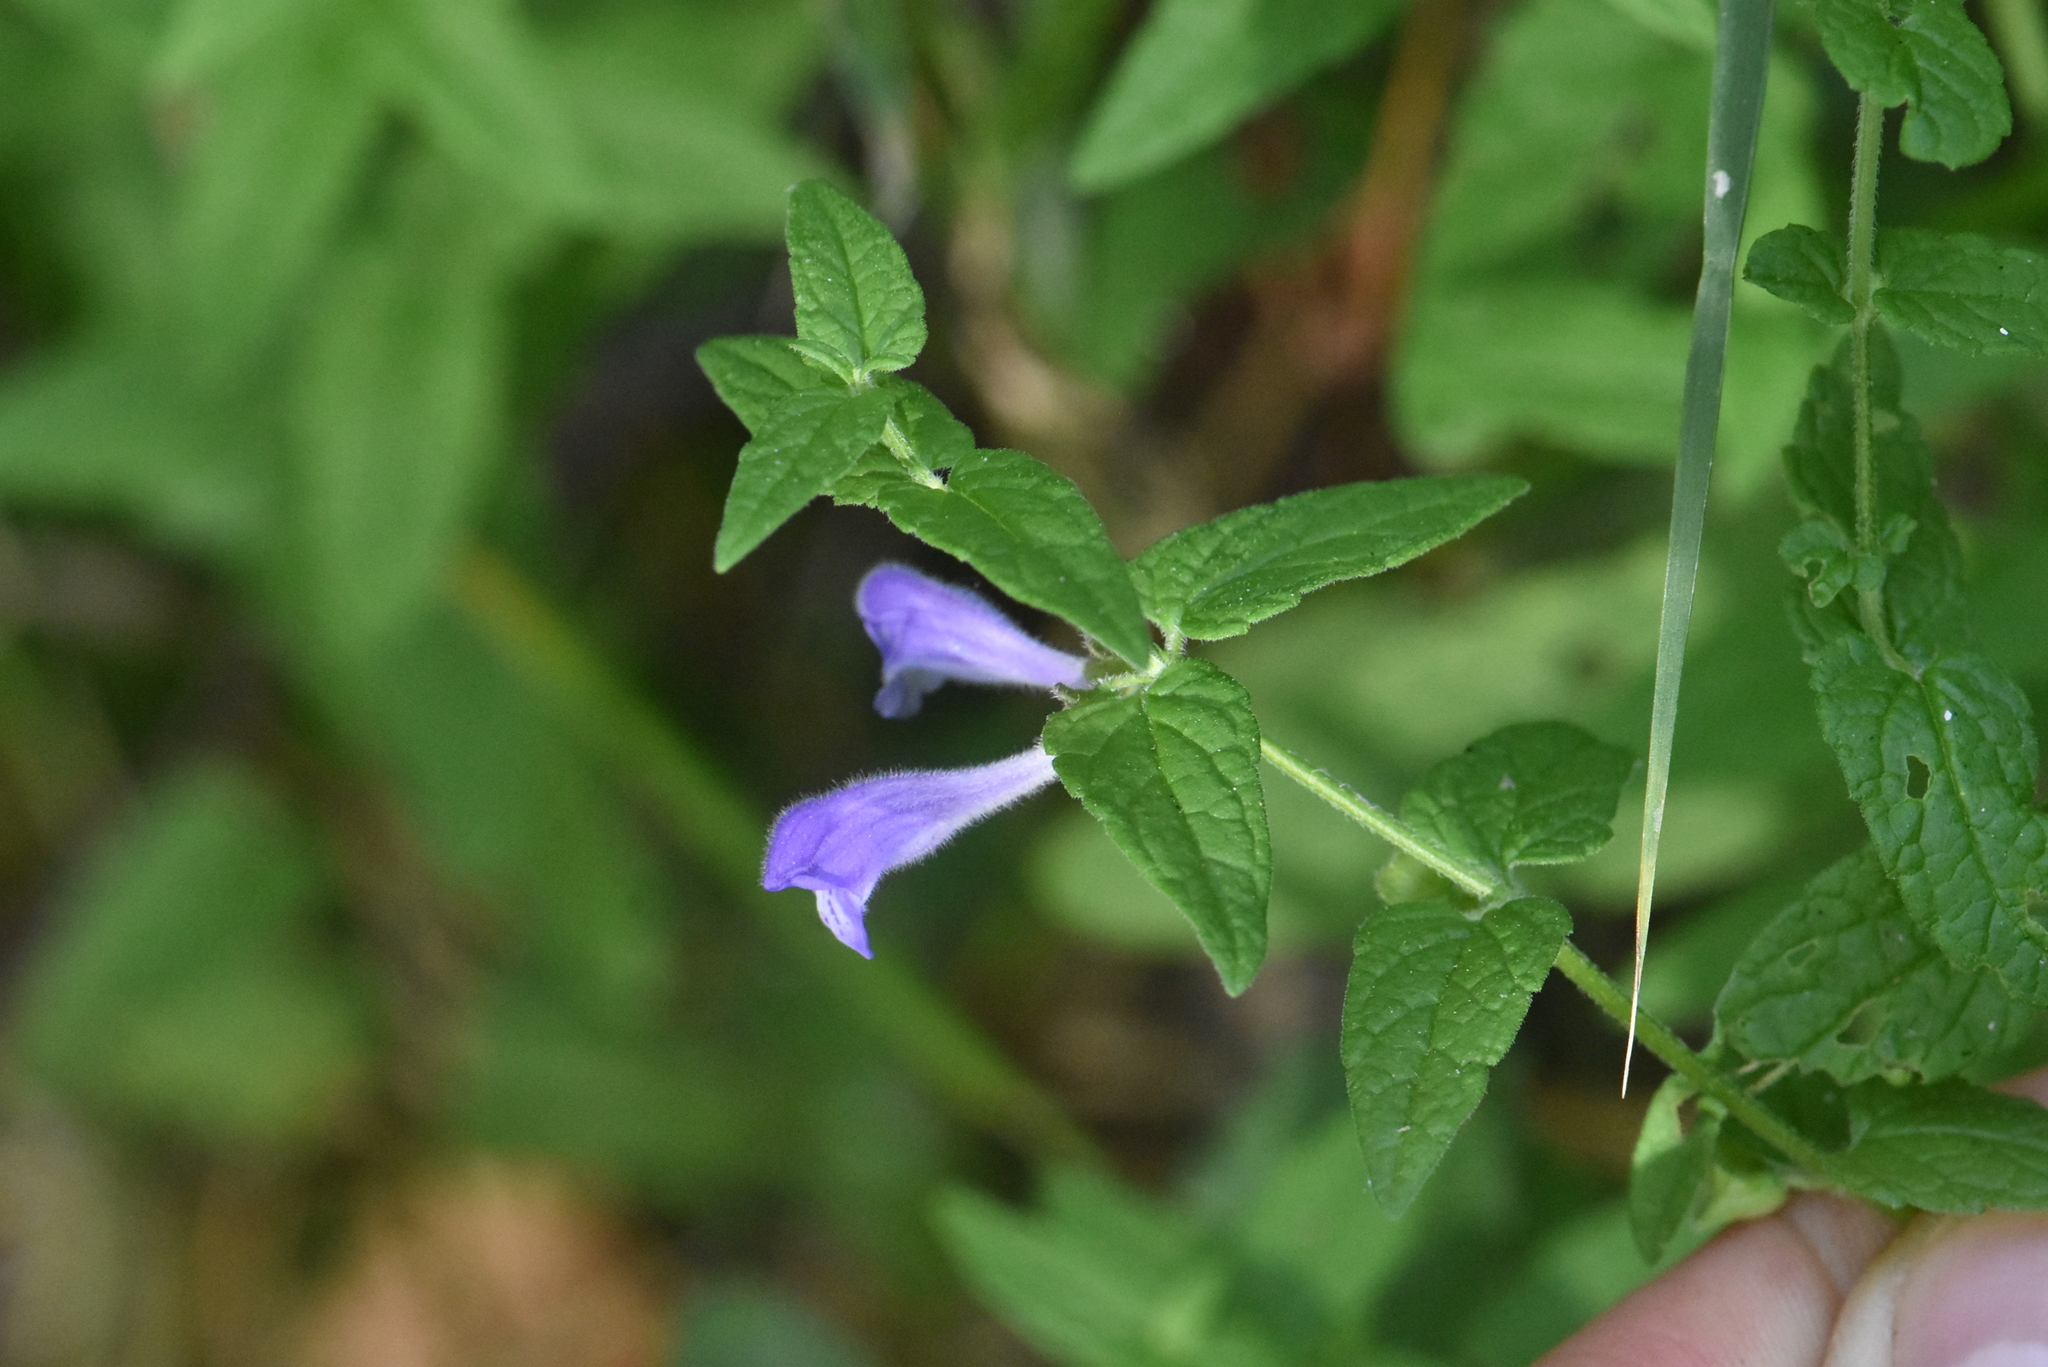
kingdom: Plantae
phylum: Tracheophyta
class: Magnoliopsida
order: Lamiales
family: Lamiaceae
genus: Scutellaria
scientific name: Scutellaria galericulata
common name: Skullcap
